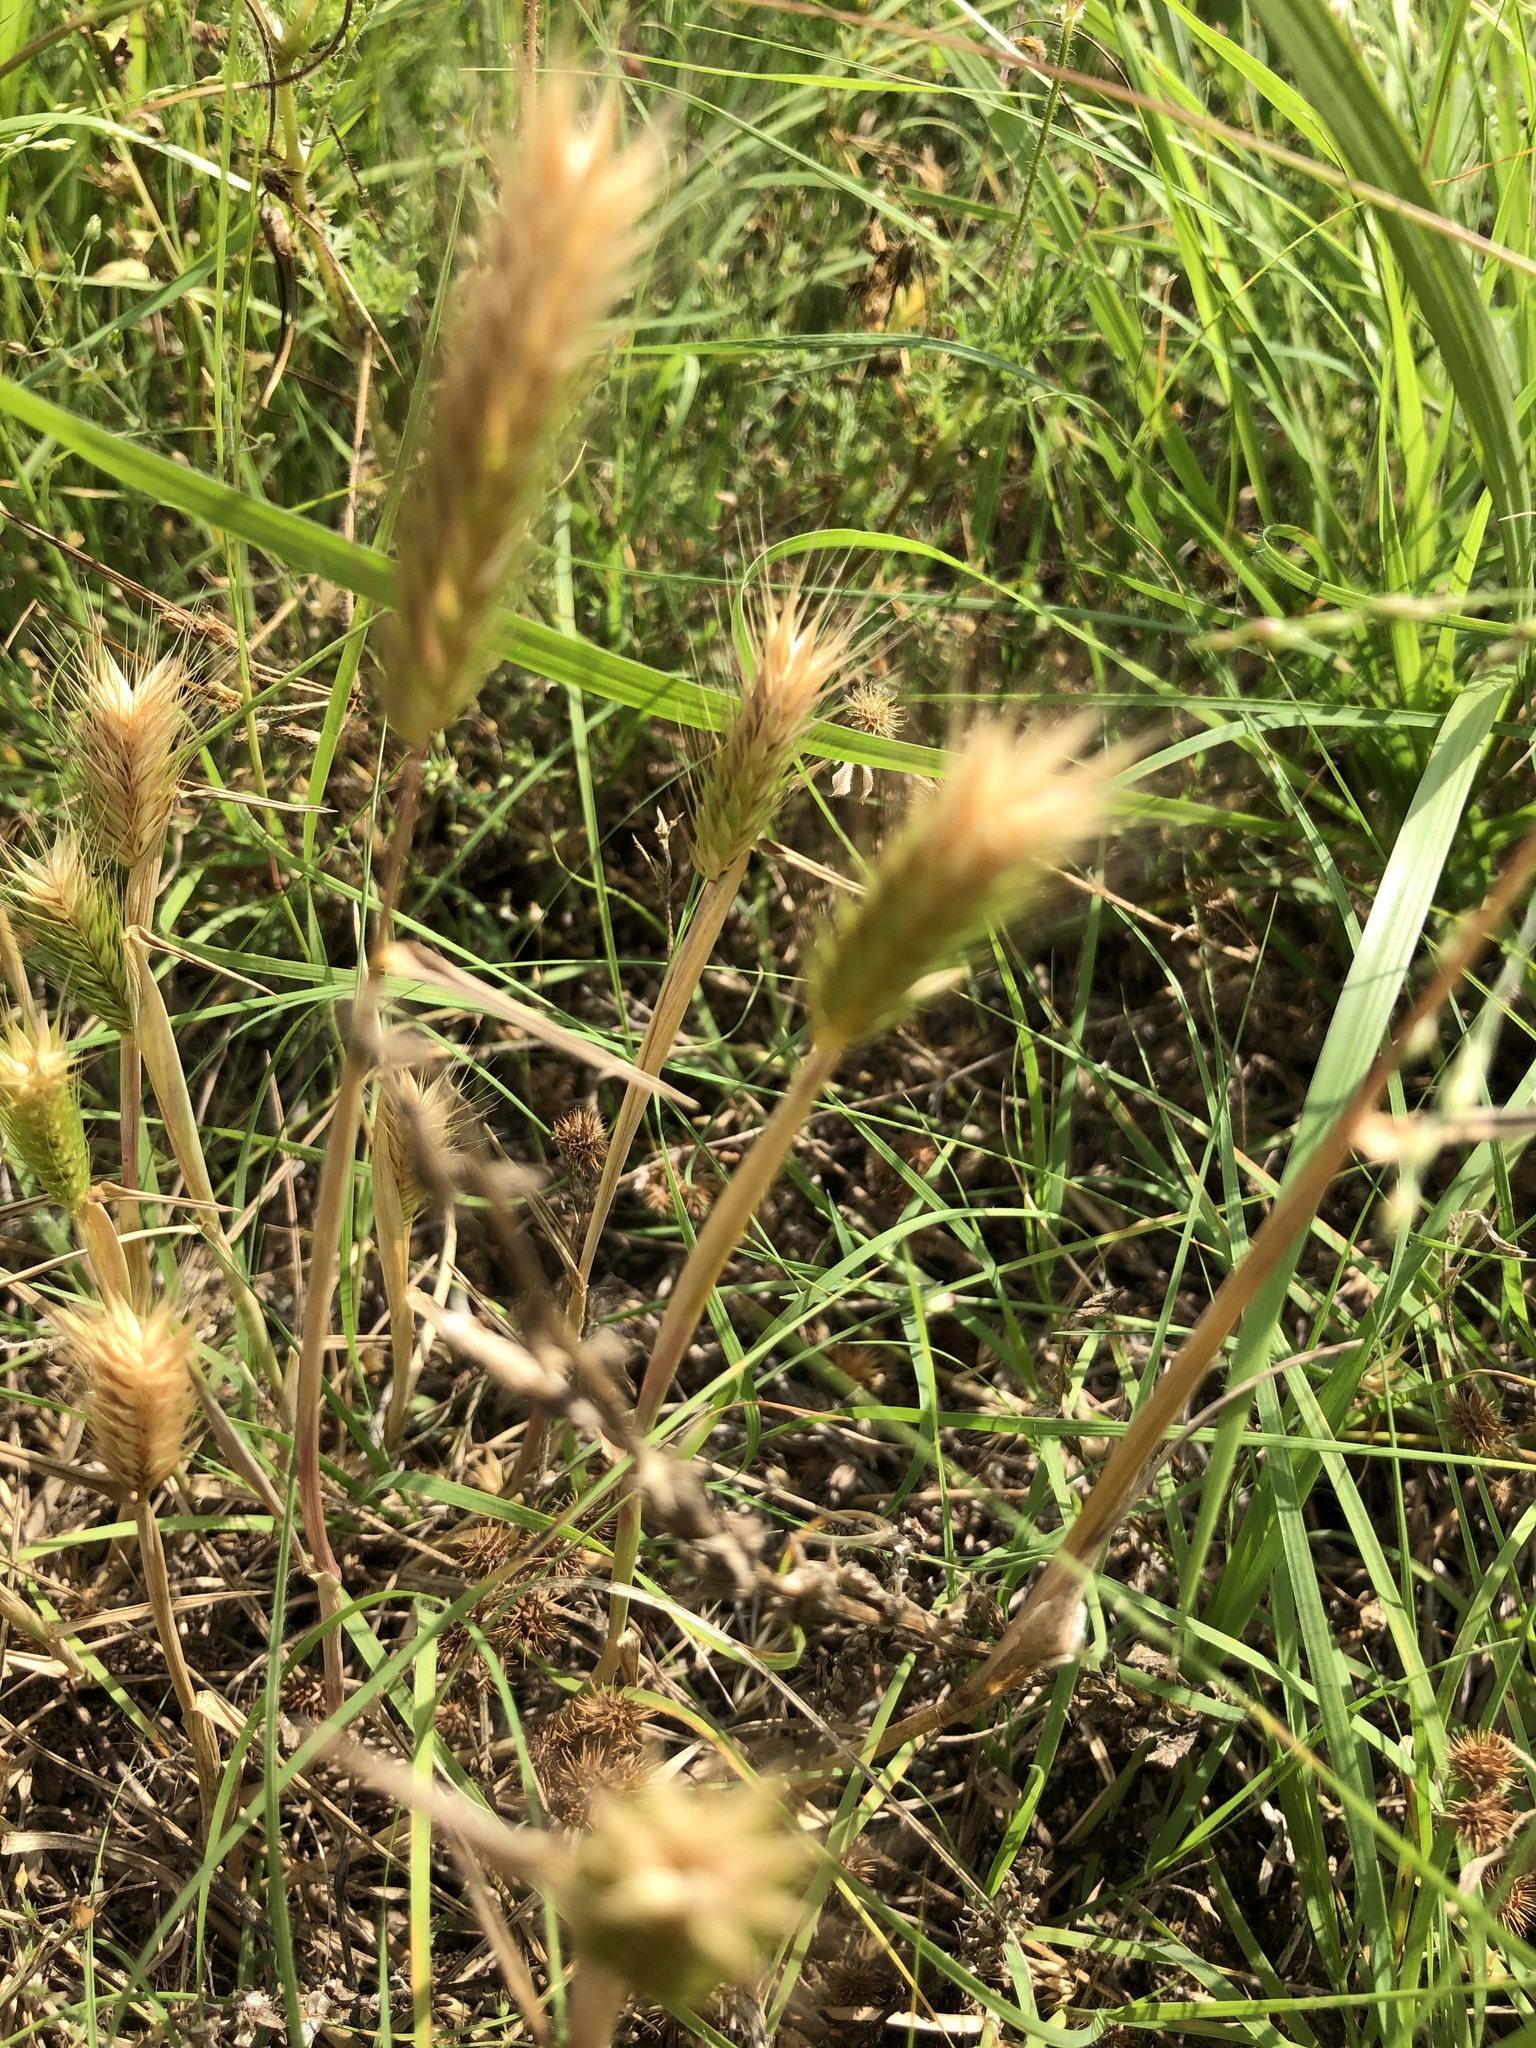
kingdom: Plantae
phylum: Tracheophyta
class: Liliopsida
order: Poales
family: Poaceae
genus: Hordeum
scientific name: Hordeum pusillum
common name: Little barley
